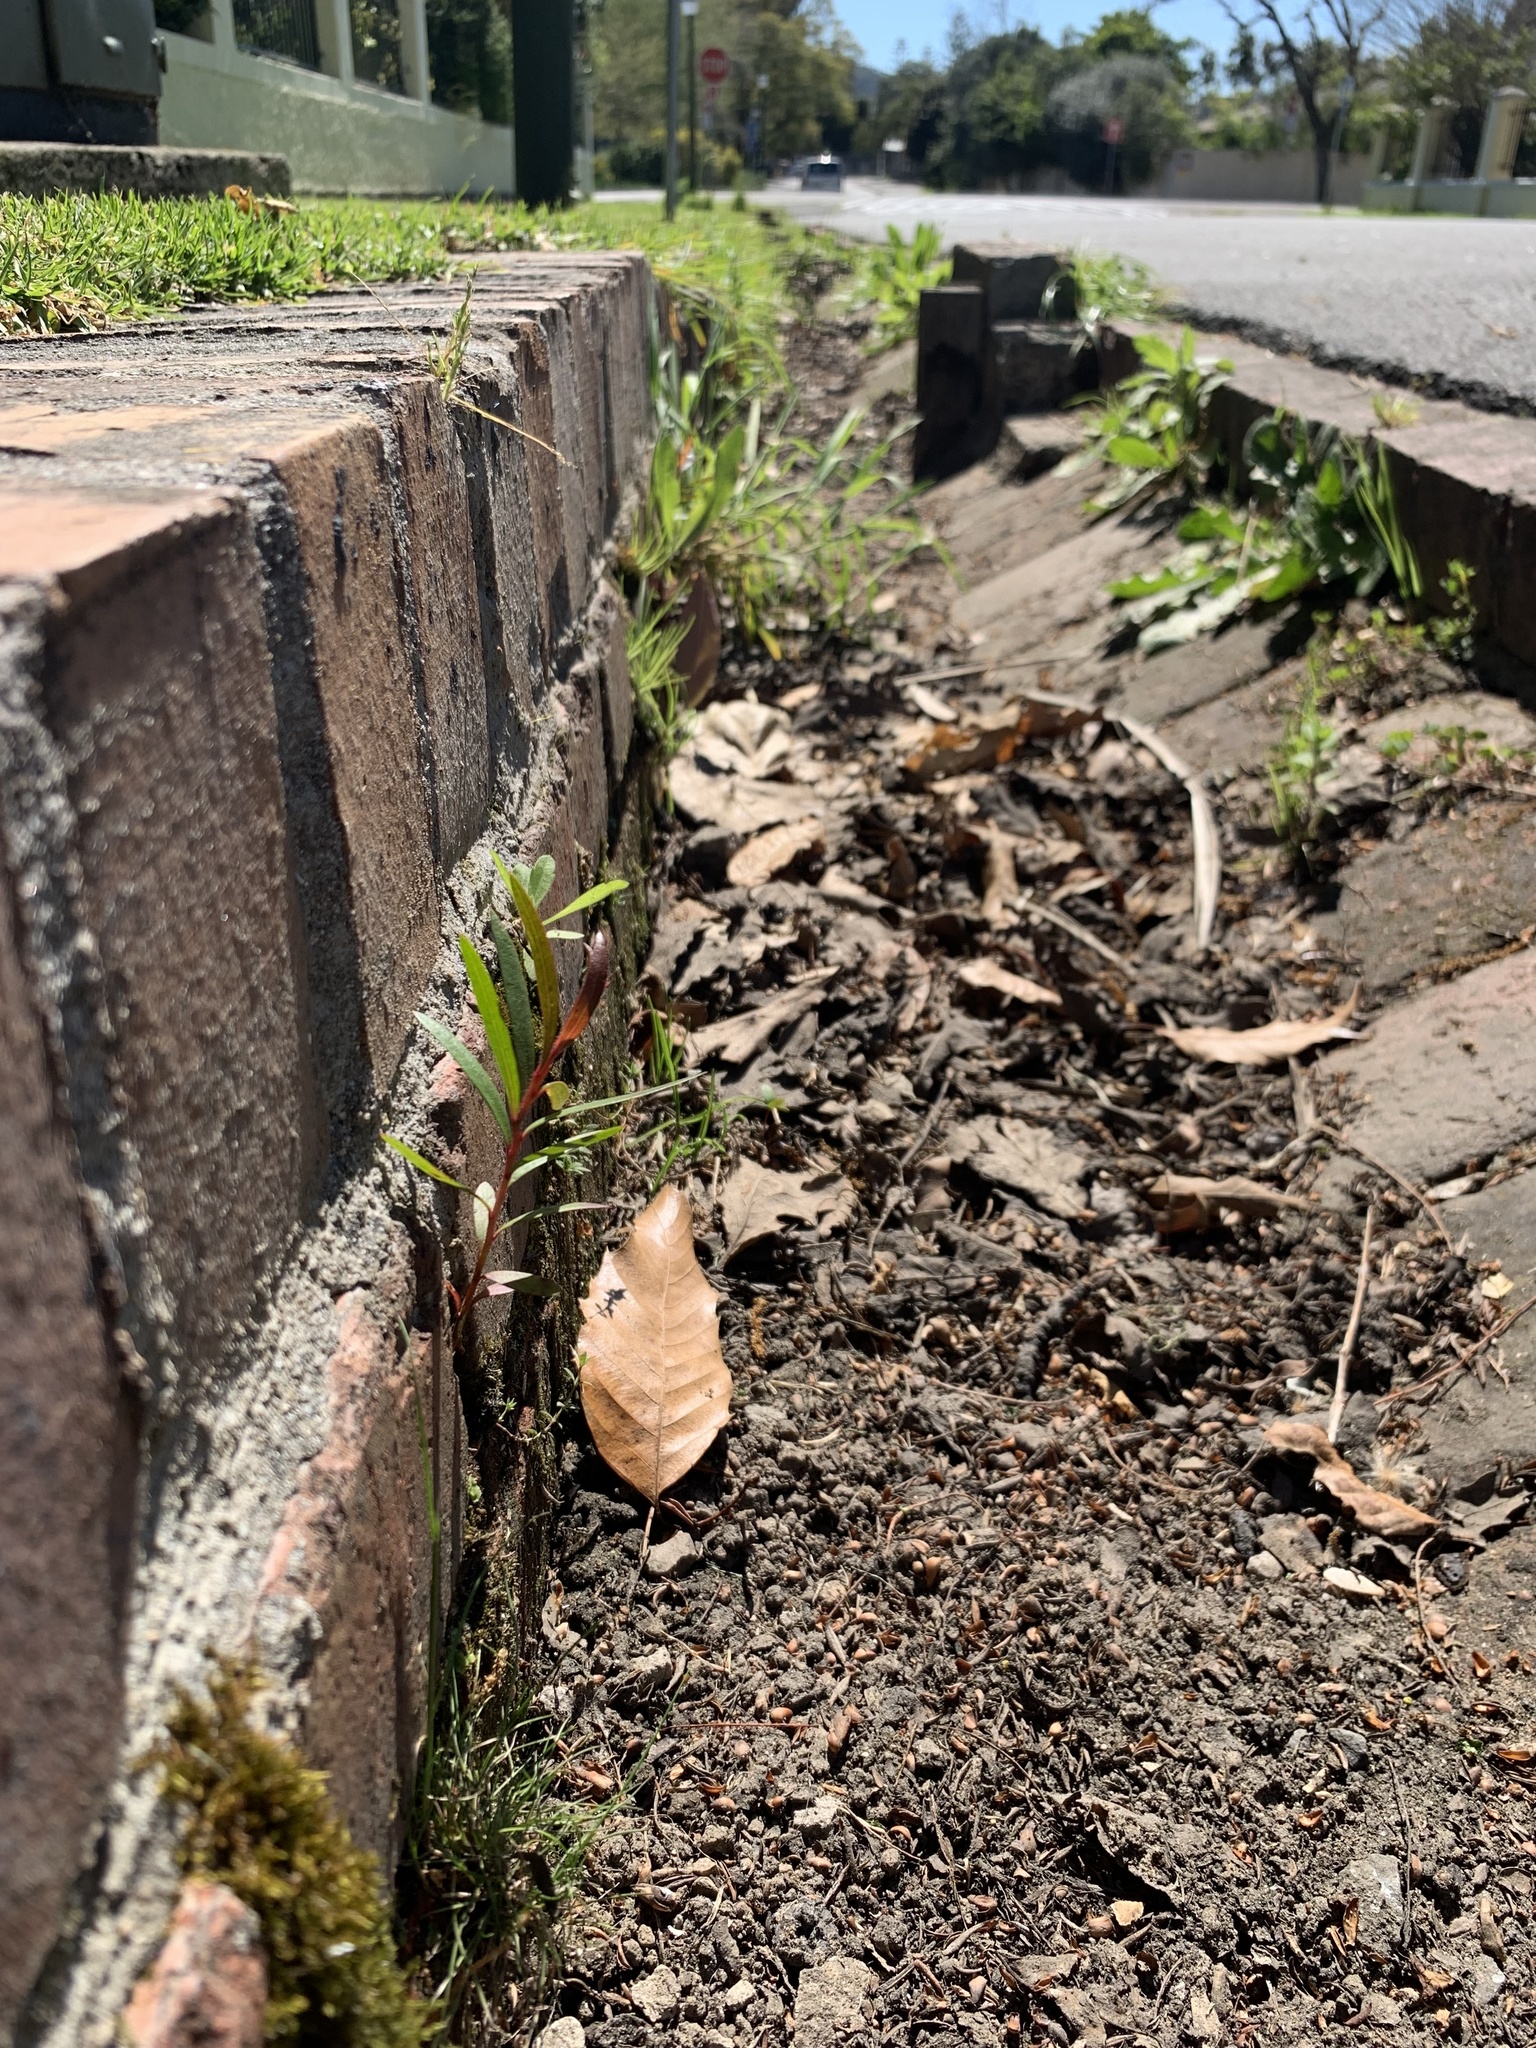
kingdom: Plantae
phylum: Tracheophyta
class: Magnoliopsida
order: Myrtales
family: Myrtaceae
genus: Callistemon
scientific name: Callistemon viminalis
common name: Drooping bottlebrush
